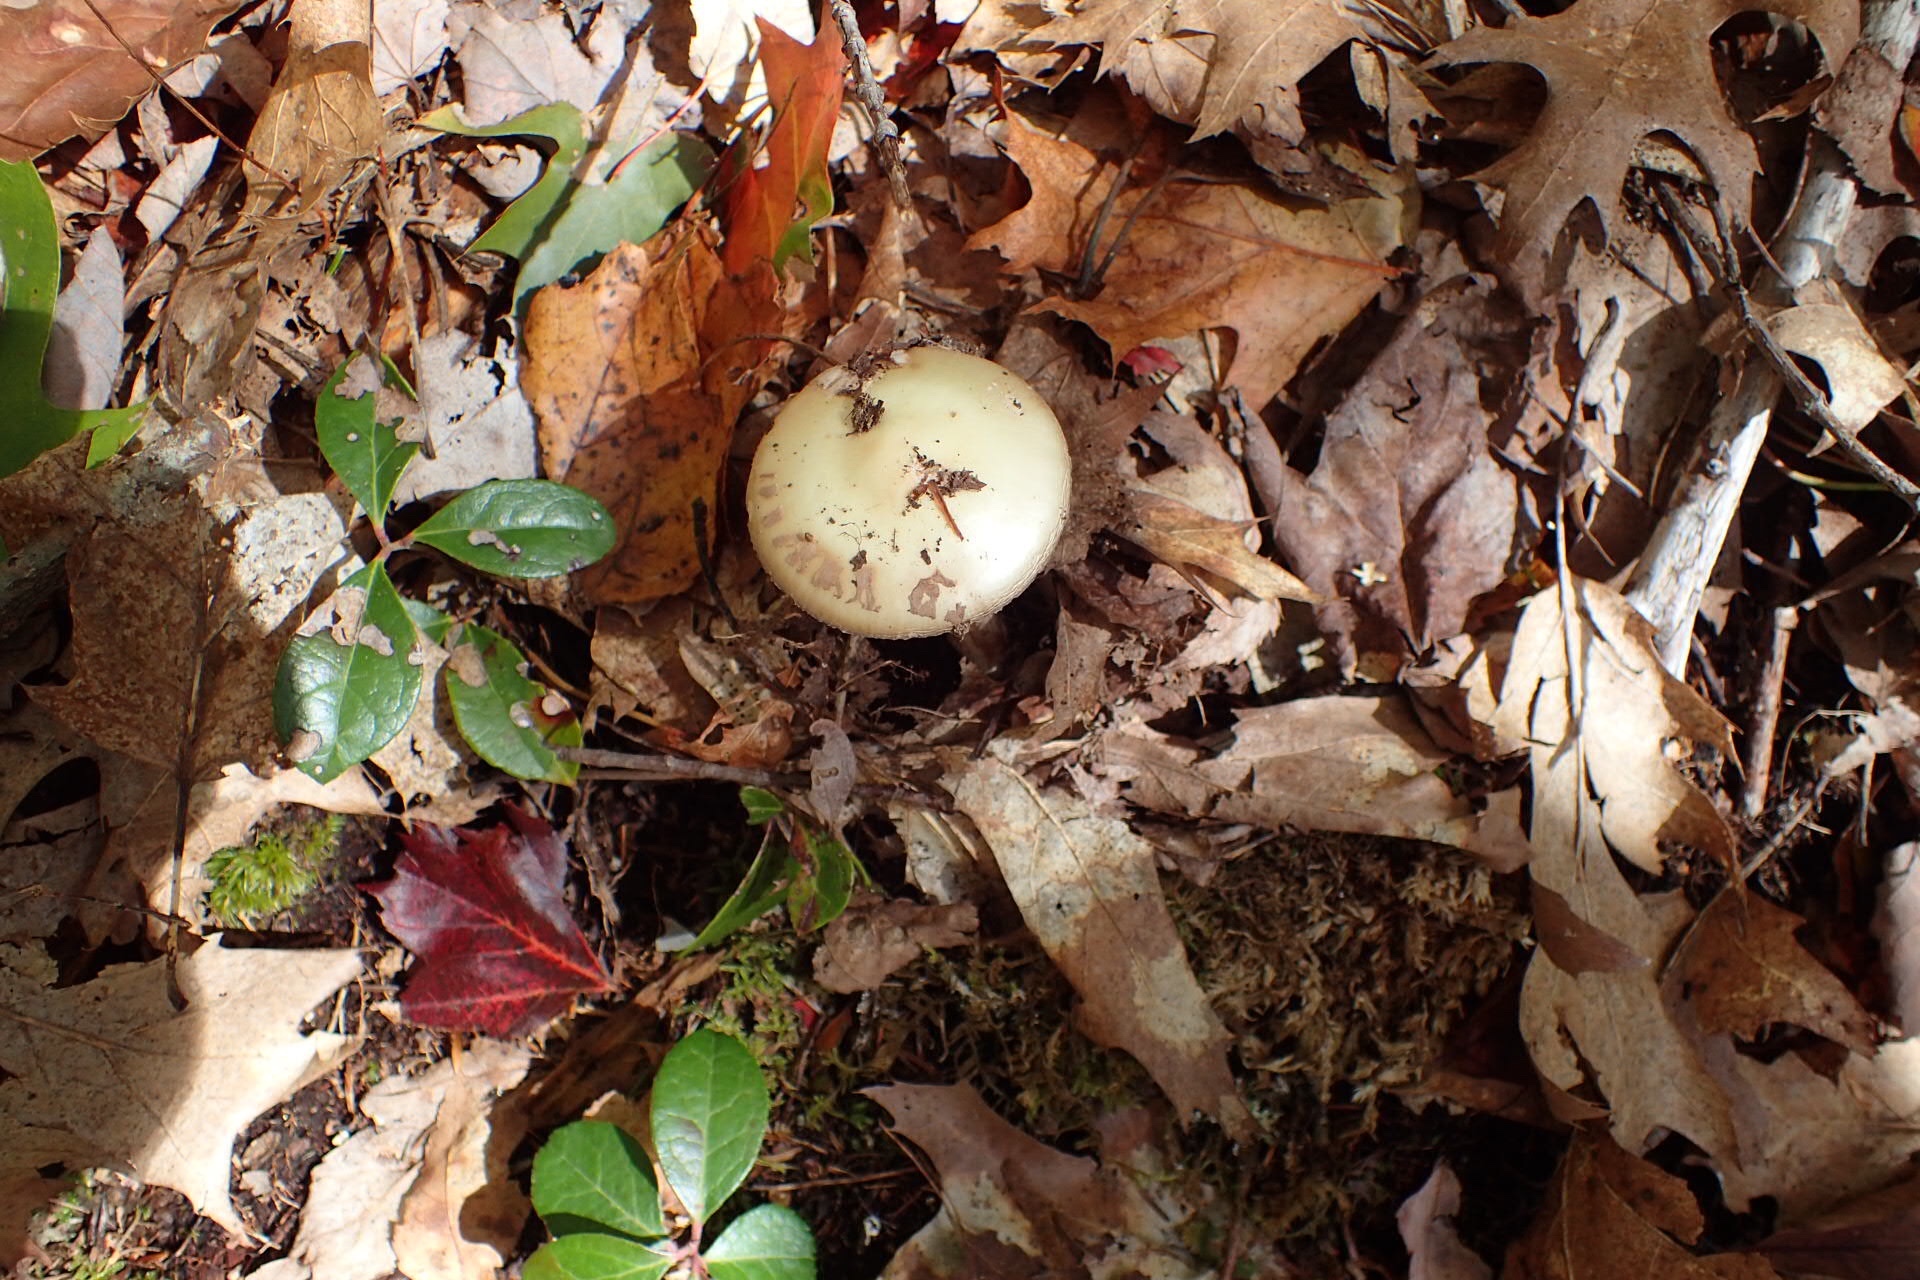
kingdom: Fungi
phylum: Basidiomycota
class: Agaricomycetes
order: Agaricales
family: Amanitaceae
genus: Amanita
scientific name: Amanita citrina
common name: False death-cap
